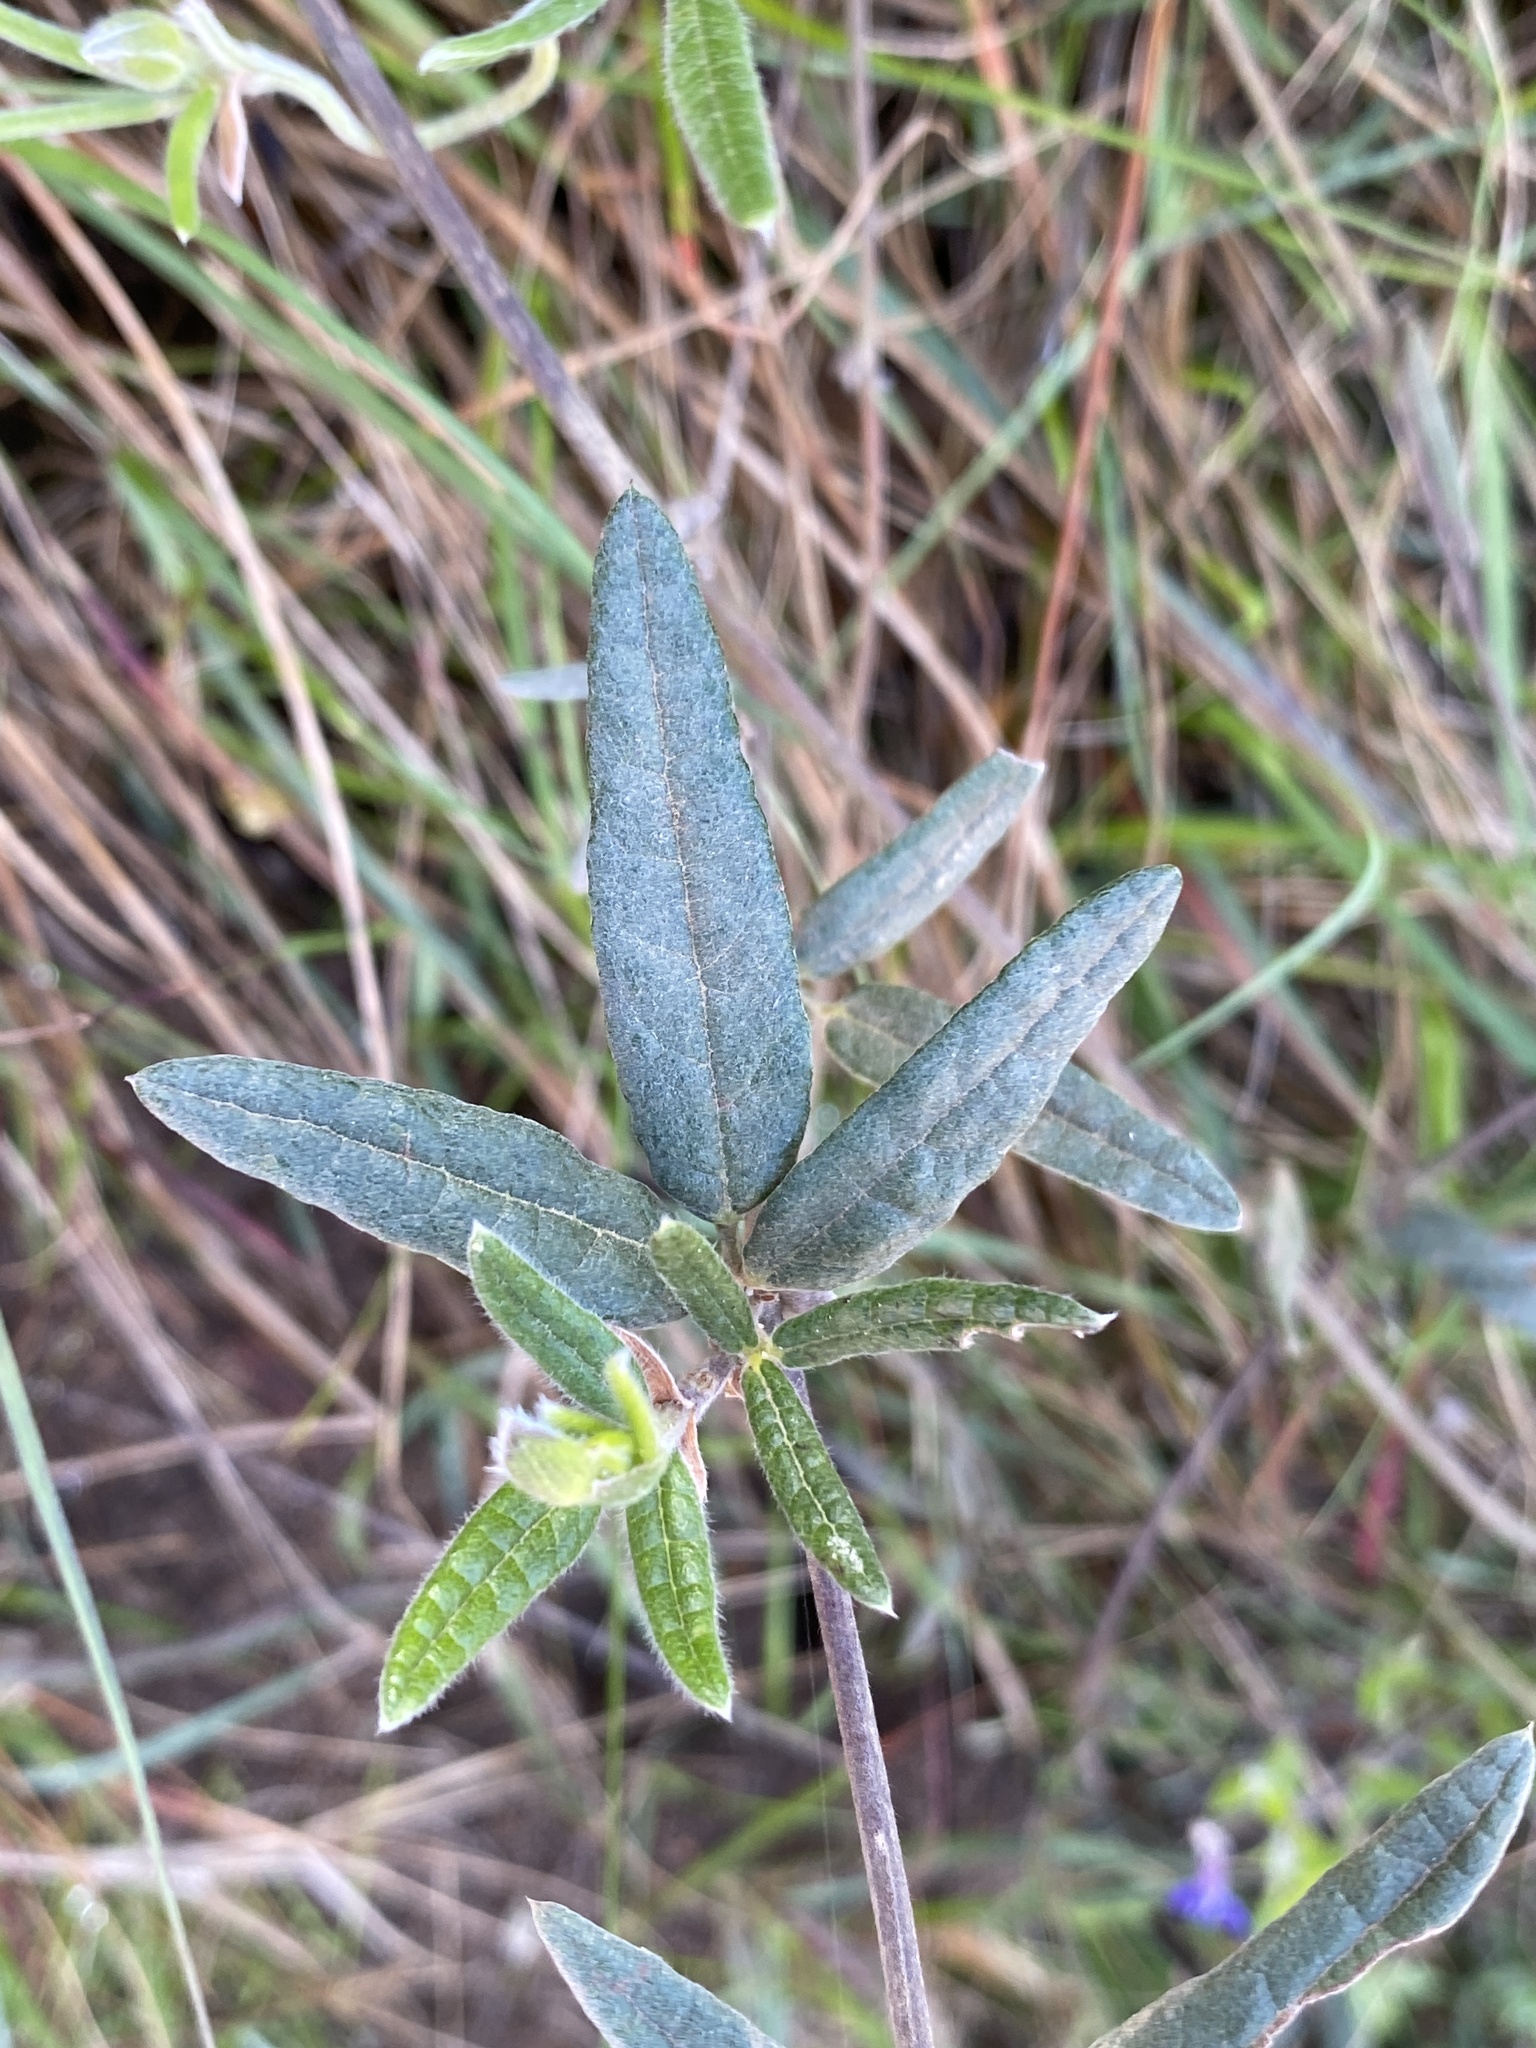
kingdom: Plantae
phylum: Tracheophyta
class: Magnoliopsida
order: Fabales
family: Fabaceae
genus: Rhynchosia
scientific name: Rhynchosia leucoscias
